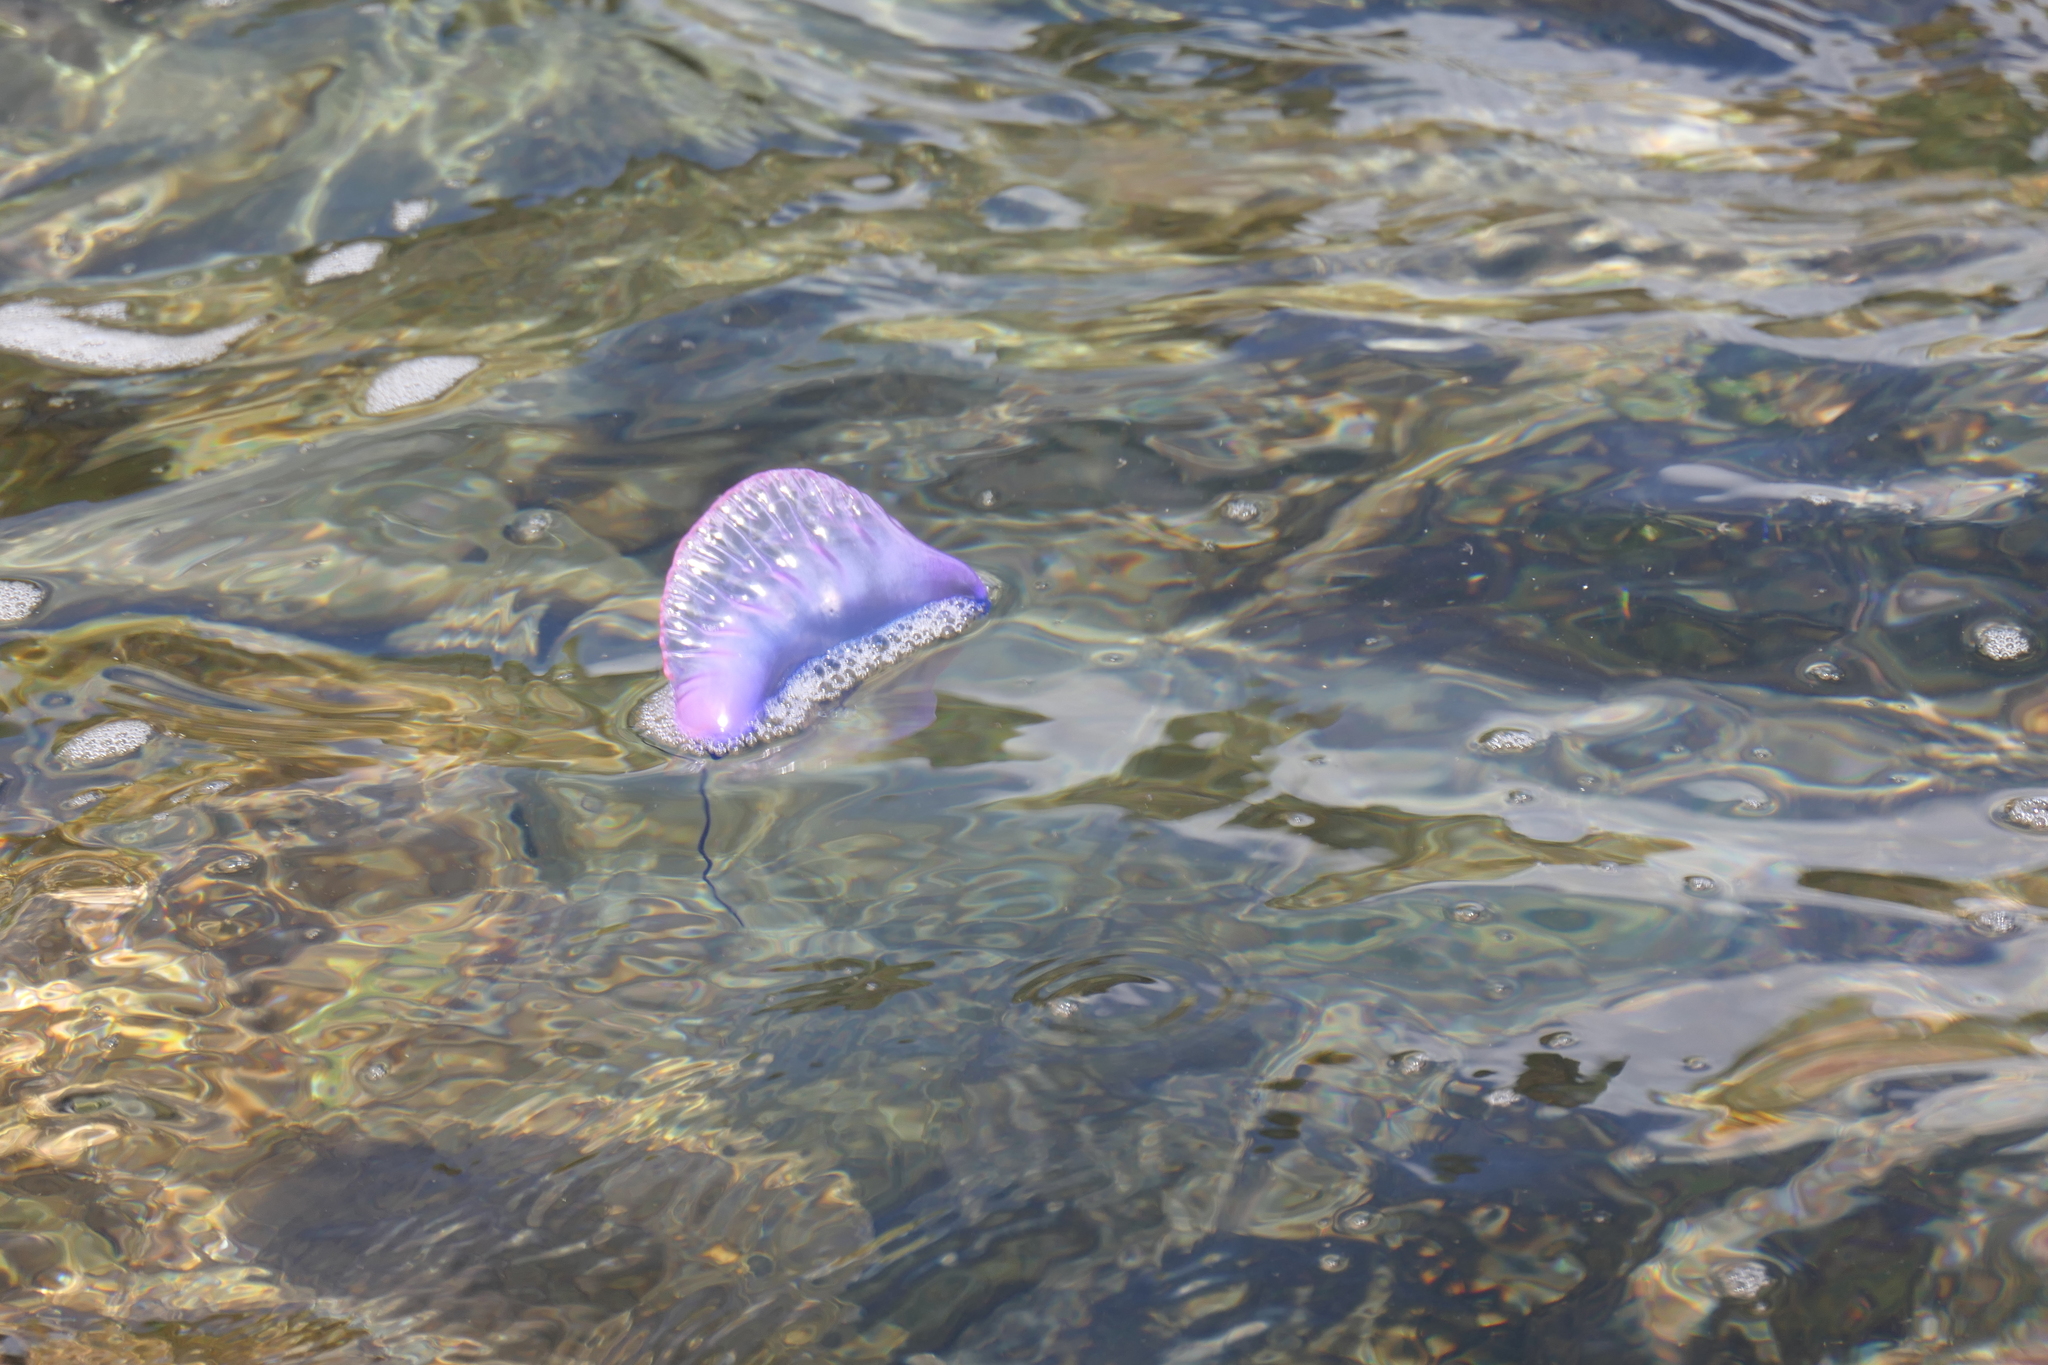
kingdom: Animalia
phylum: Cnidaria
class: Hydrozoa
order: Siphonophorae
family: Physaliidae
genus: Physalia
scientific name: Physalia physalis
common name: Portuguese man-of-war
